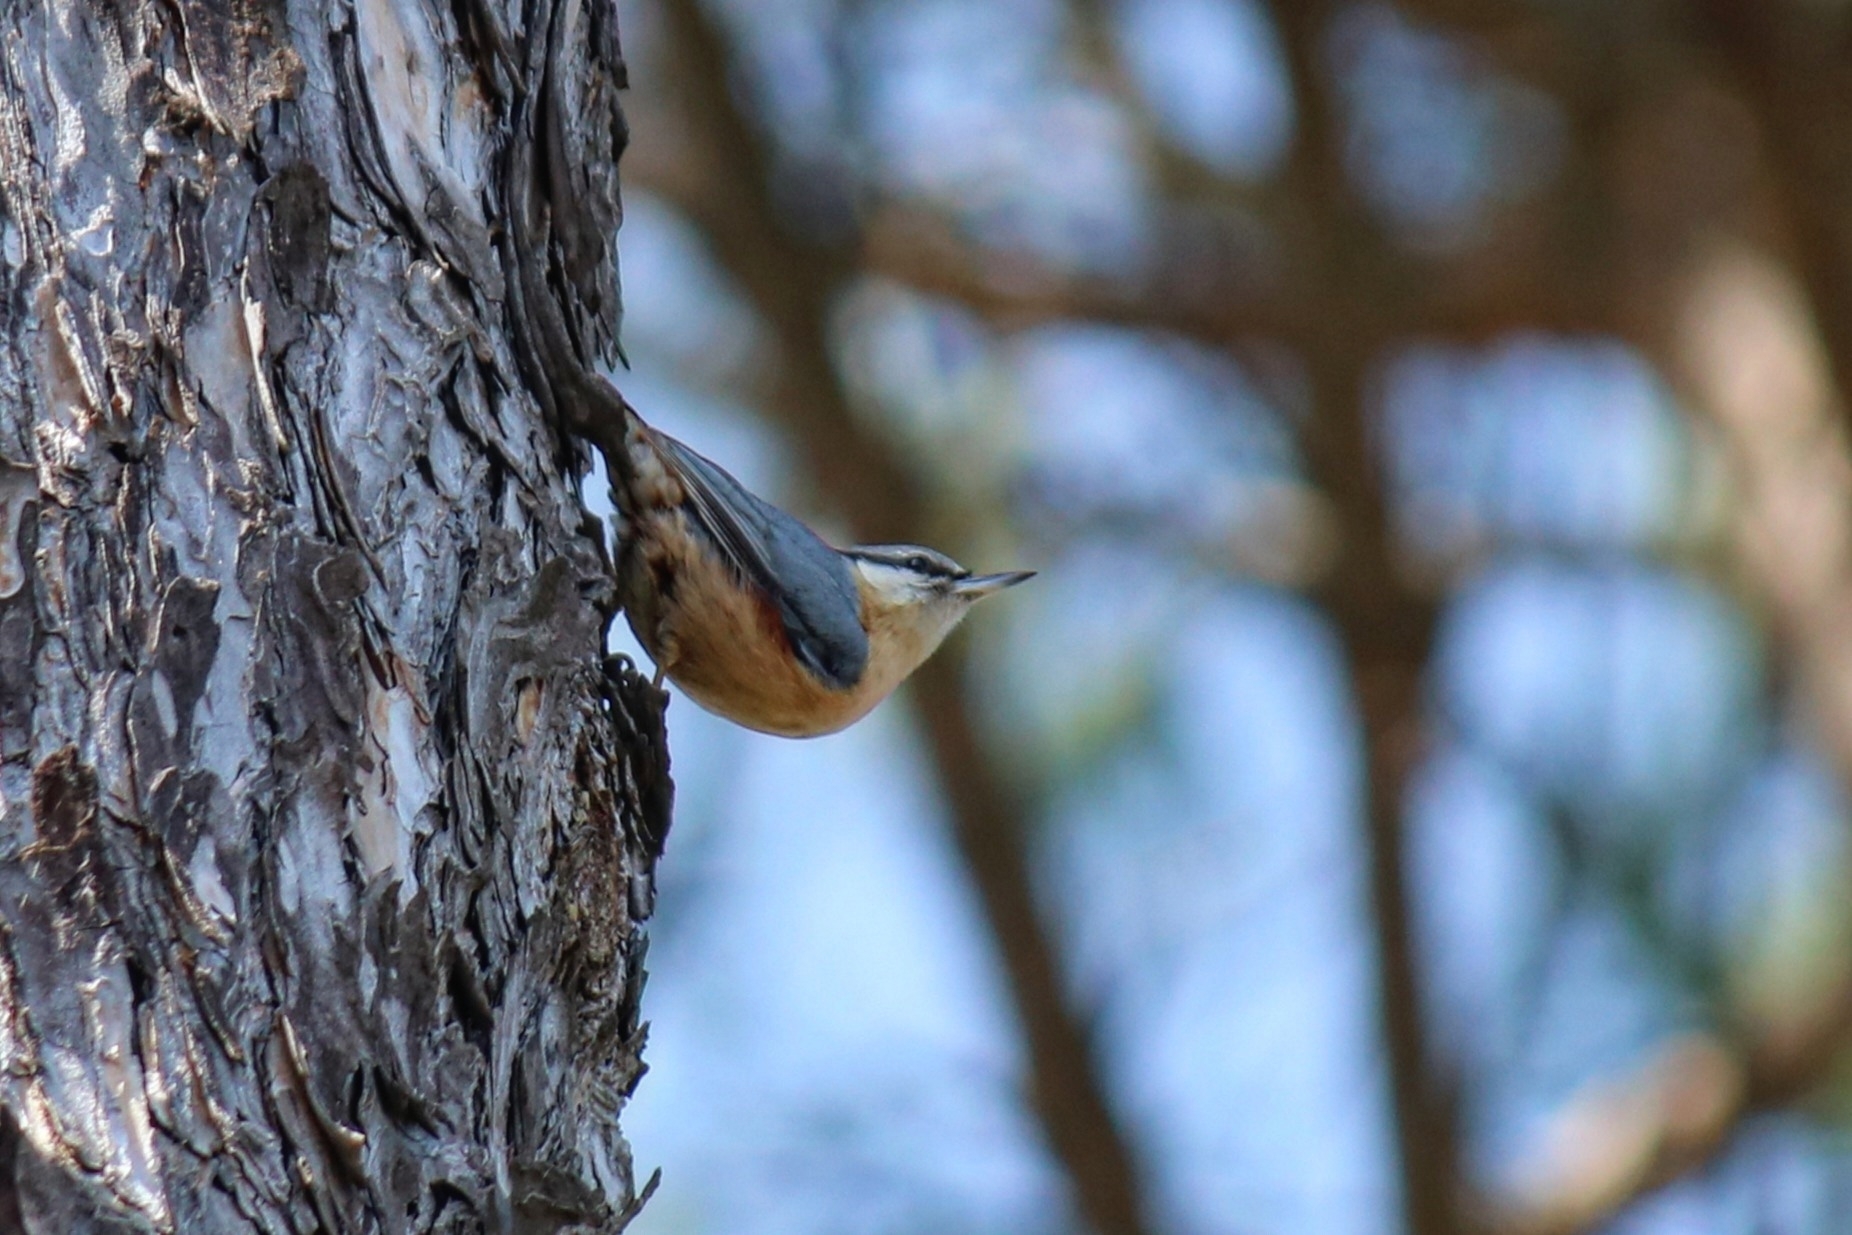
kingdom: Animalia
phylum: Chordata
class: Aves
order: Passeriformes
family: Sittidae
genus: Sitta
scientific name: Sitta europaea
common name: Eurasian nuthatch
